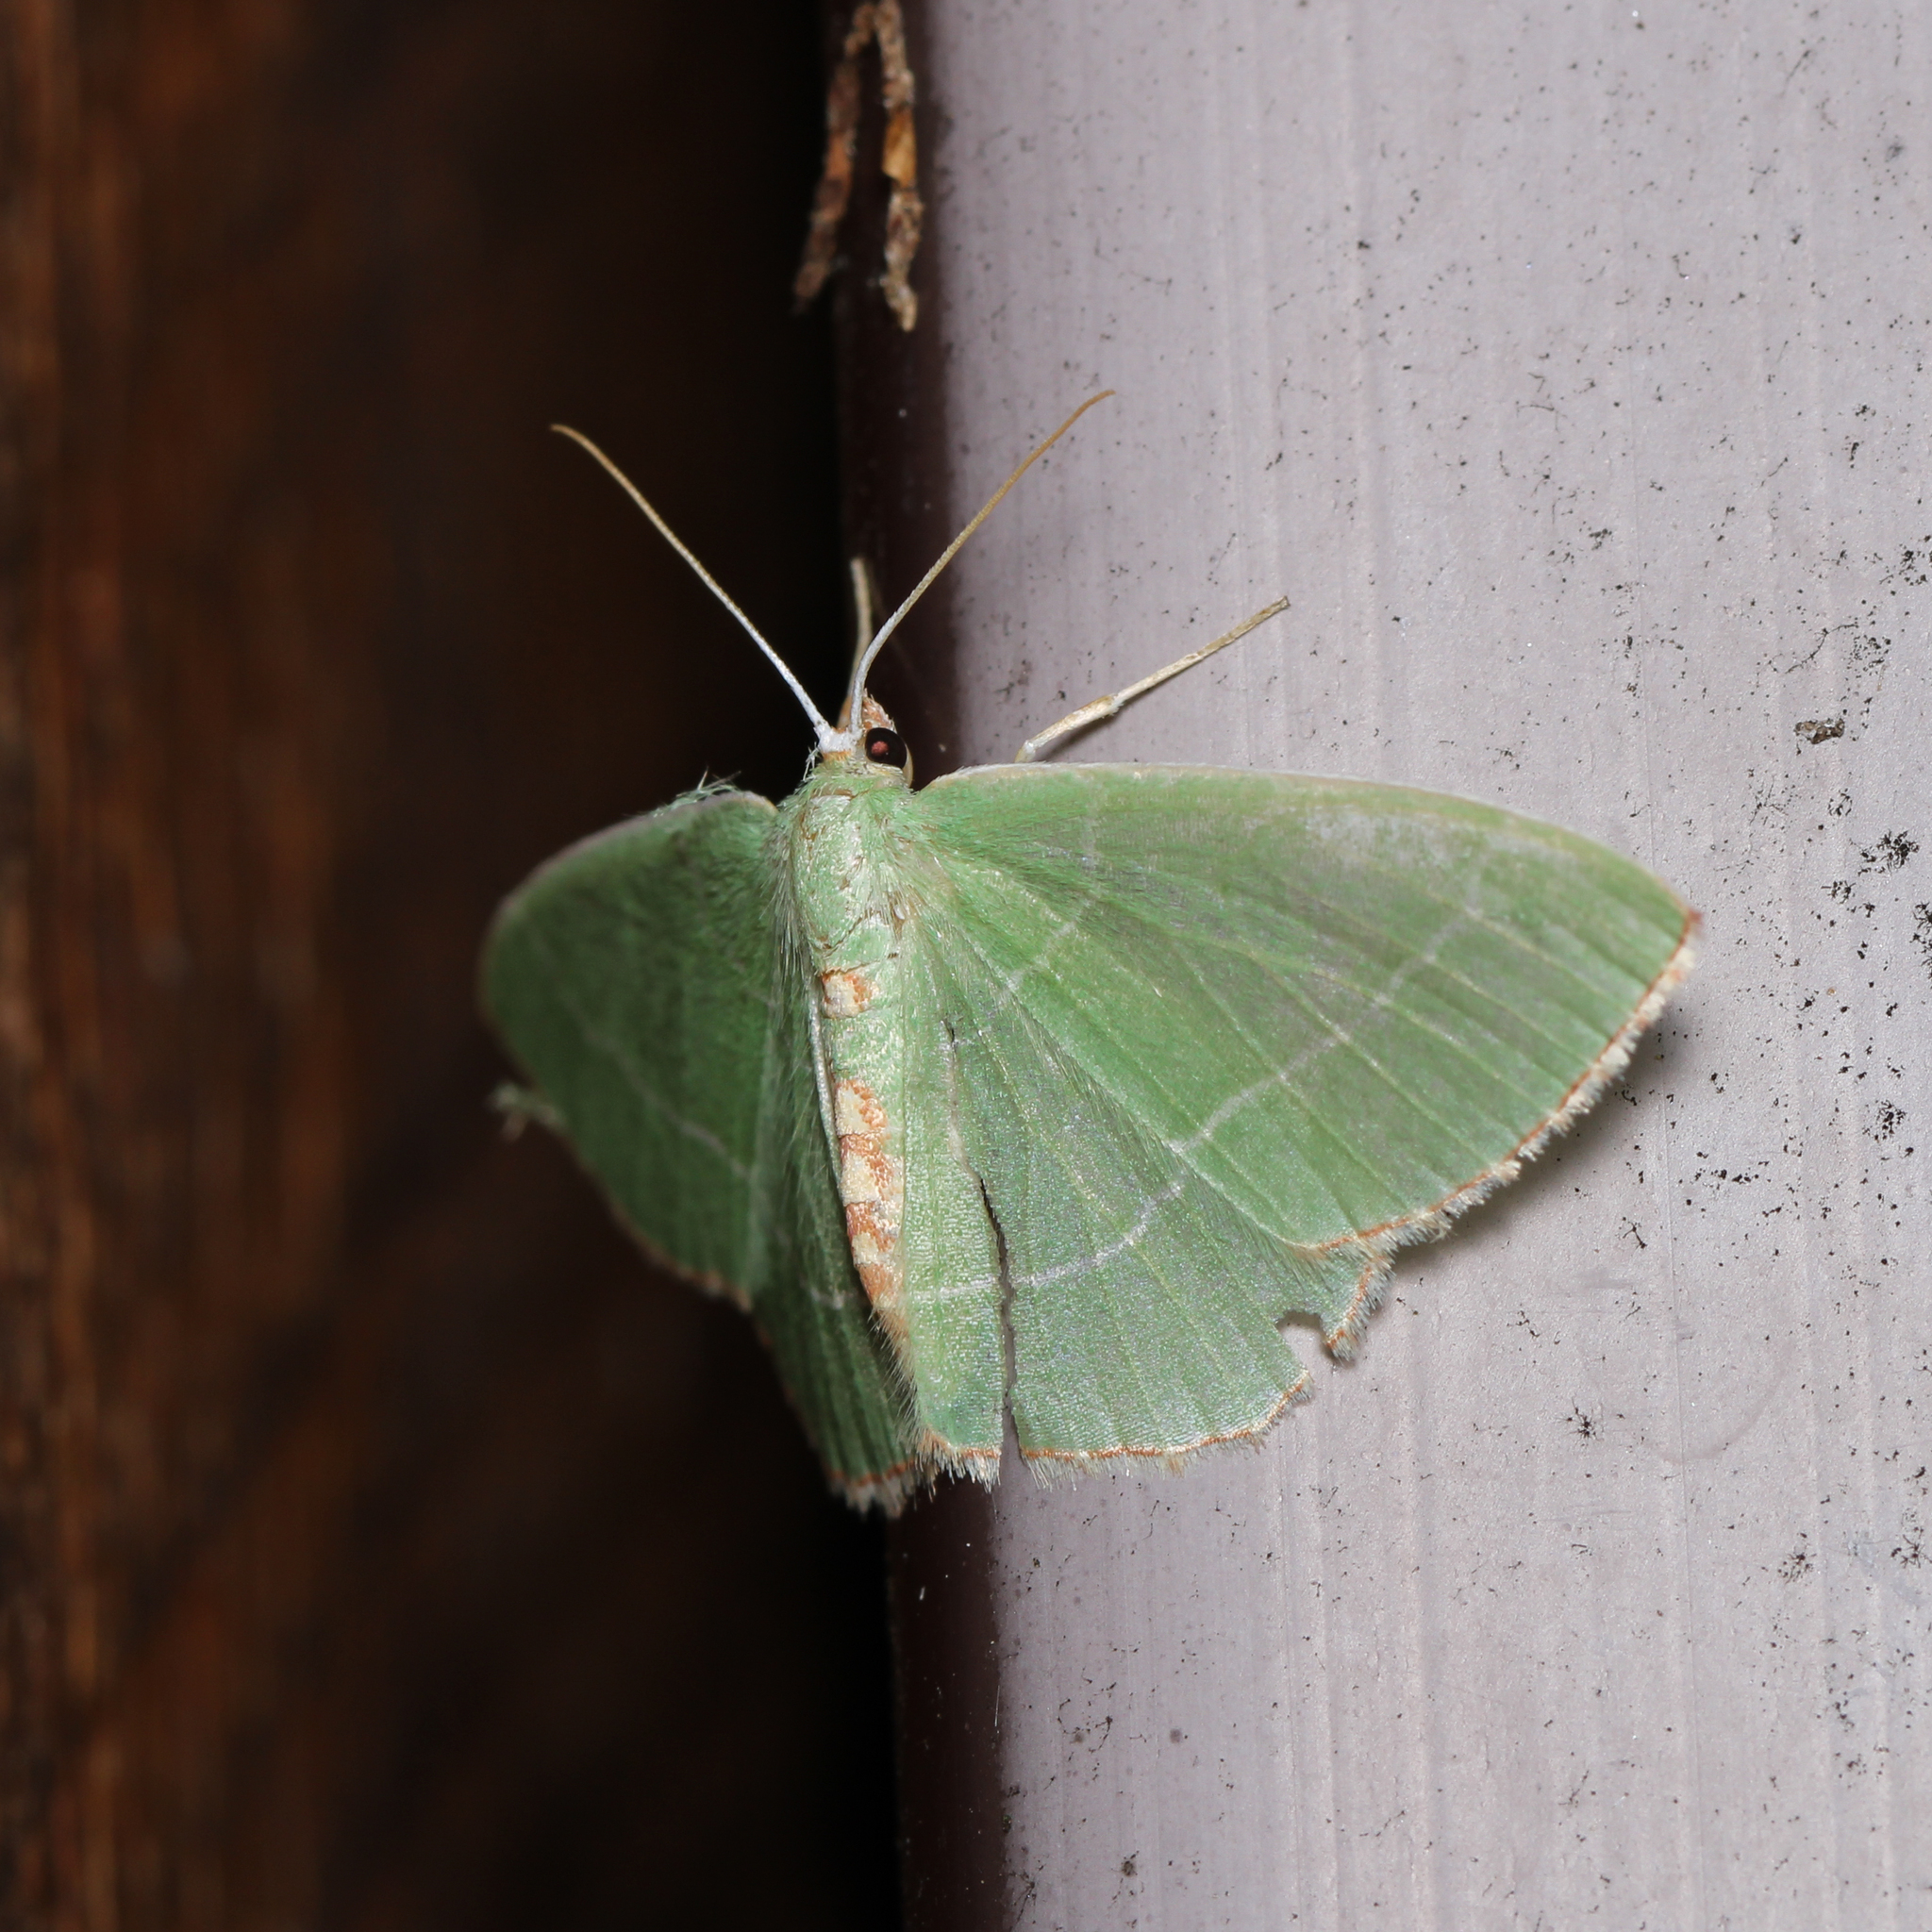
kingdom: Animalia
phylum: Arthropoda
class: Insecta
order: Lepidoptera
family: Geometridae
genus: Nemoria
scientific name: Nemoria bistriaria
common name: Red-fringed emerald
